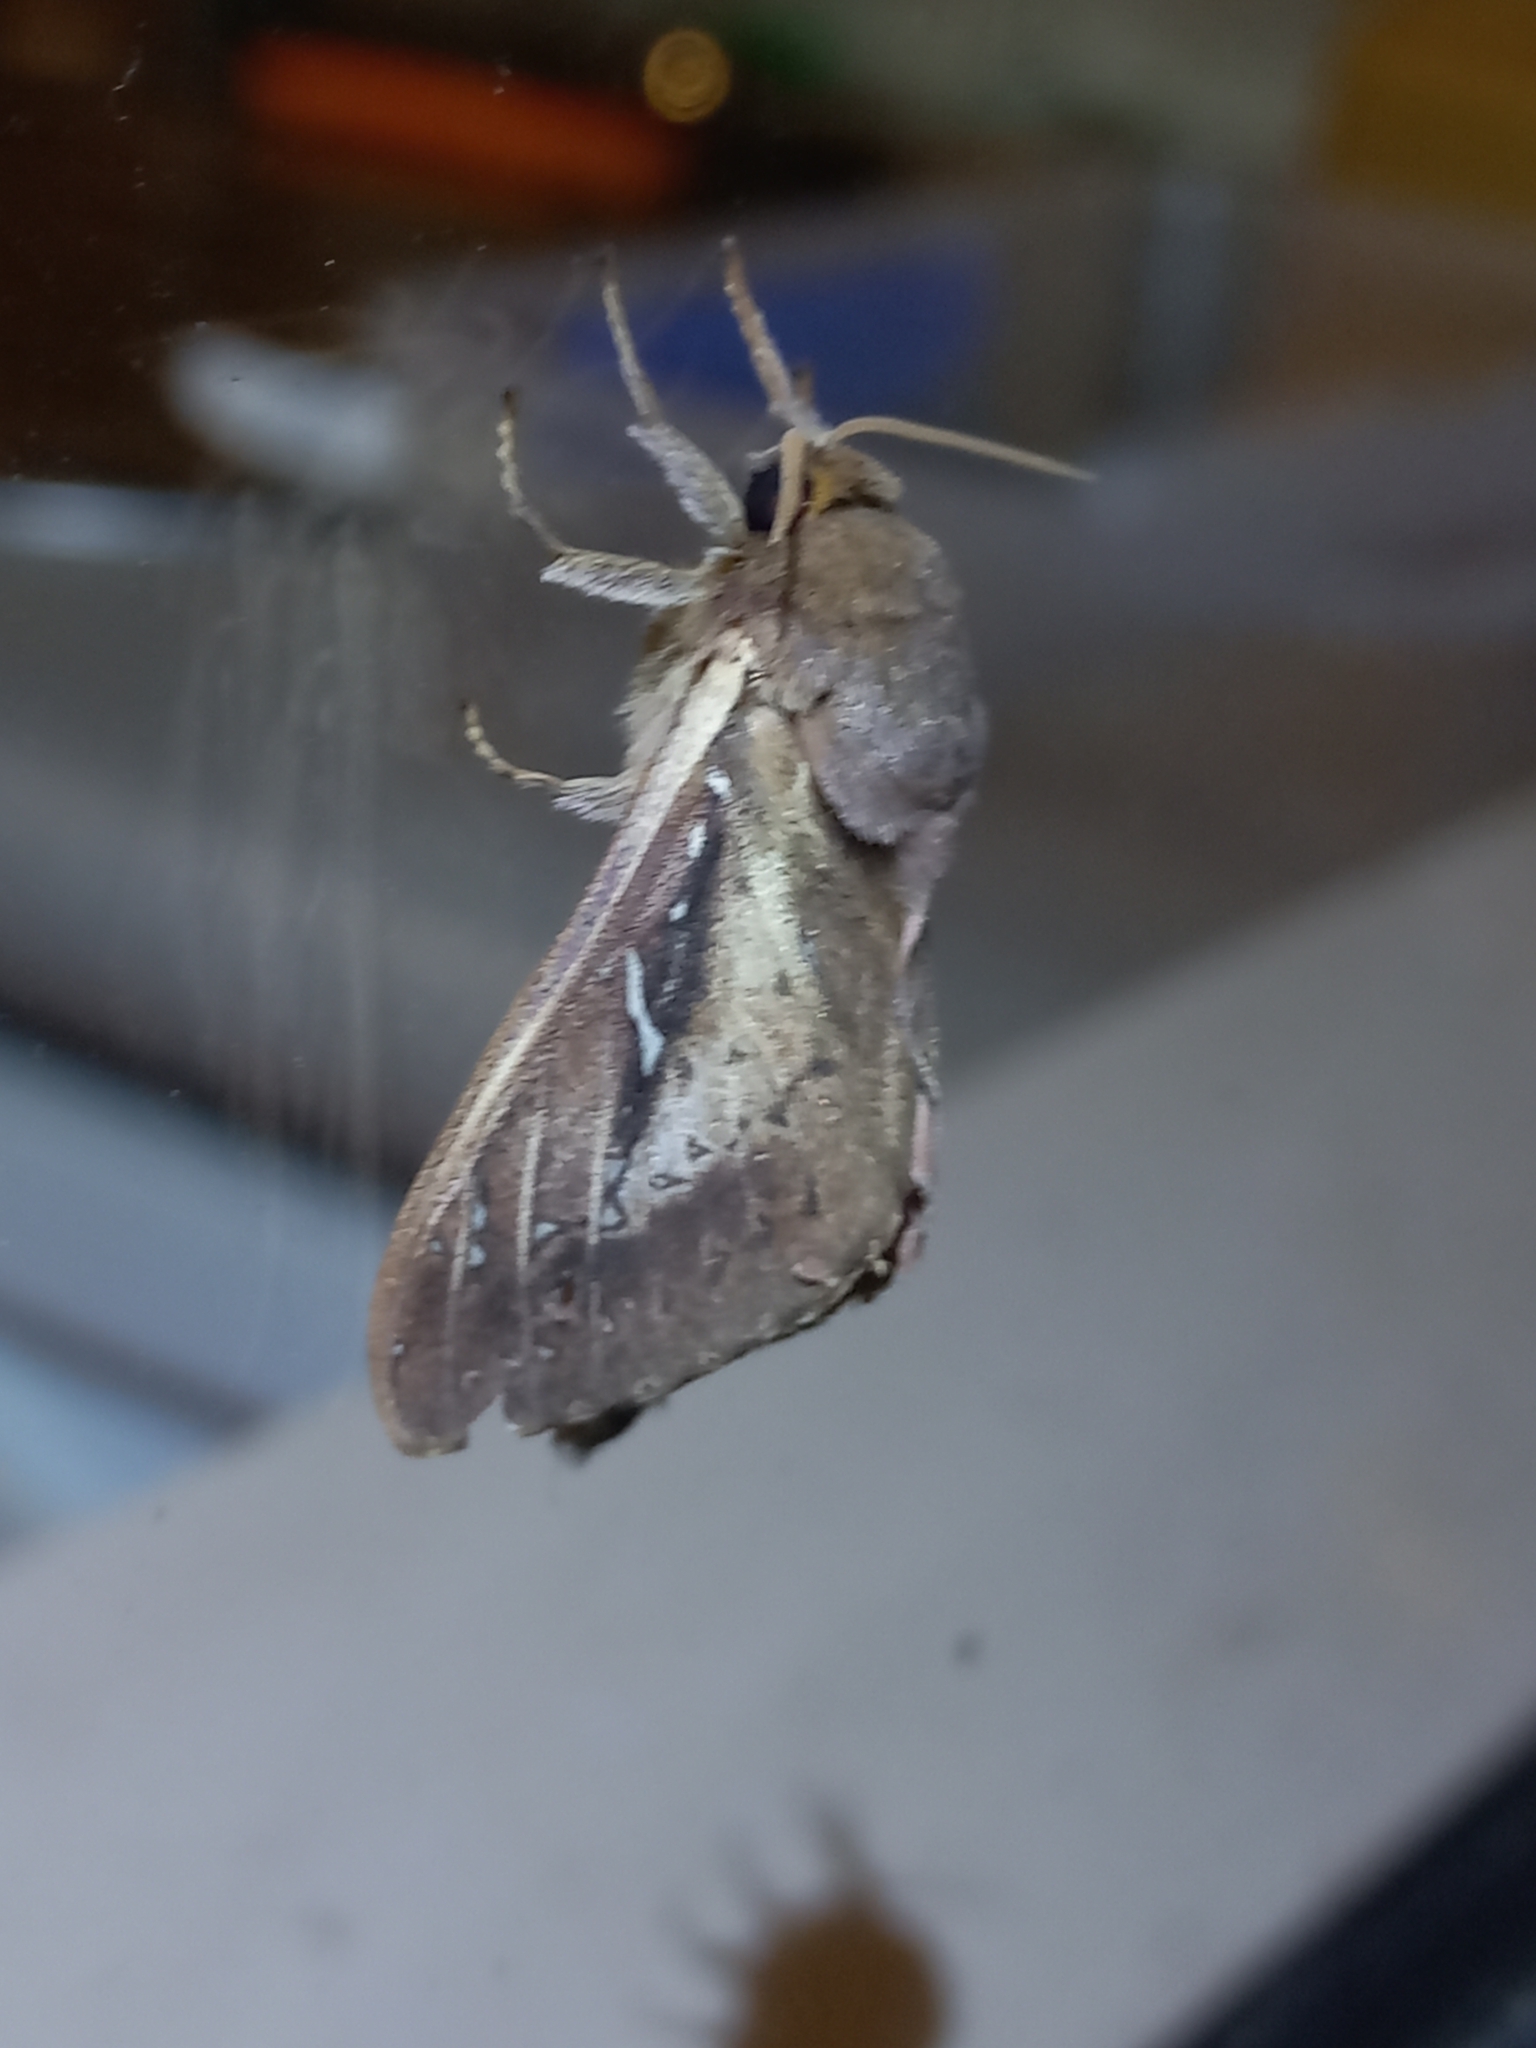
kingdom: Animalia
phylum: Arthropoda
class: Insecta
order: Lepidoptera
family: Hepialidae
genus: Wiseana
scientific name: Wiseana signata
